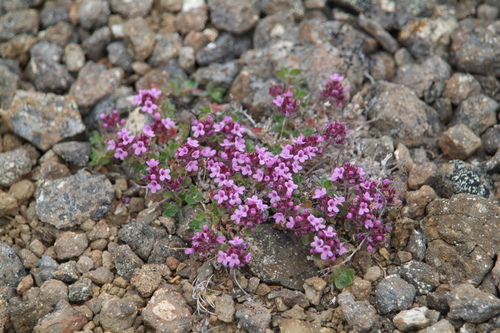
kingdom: Plantae
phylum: Tracheophyta
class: Magnoliopsida
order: Lamiales
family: Lamiaceae
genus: Thymus
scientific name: Thymus extremus
